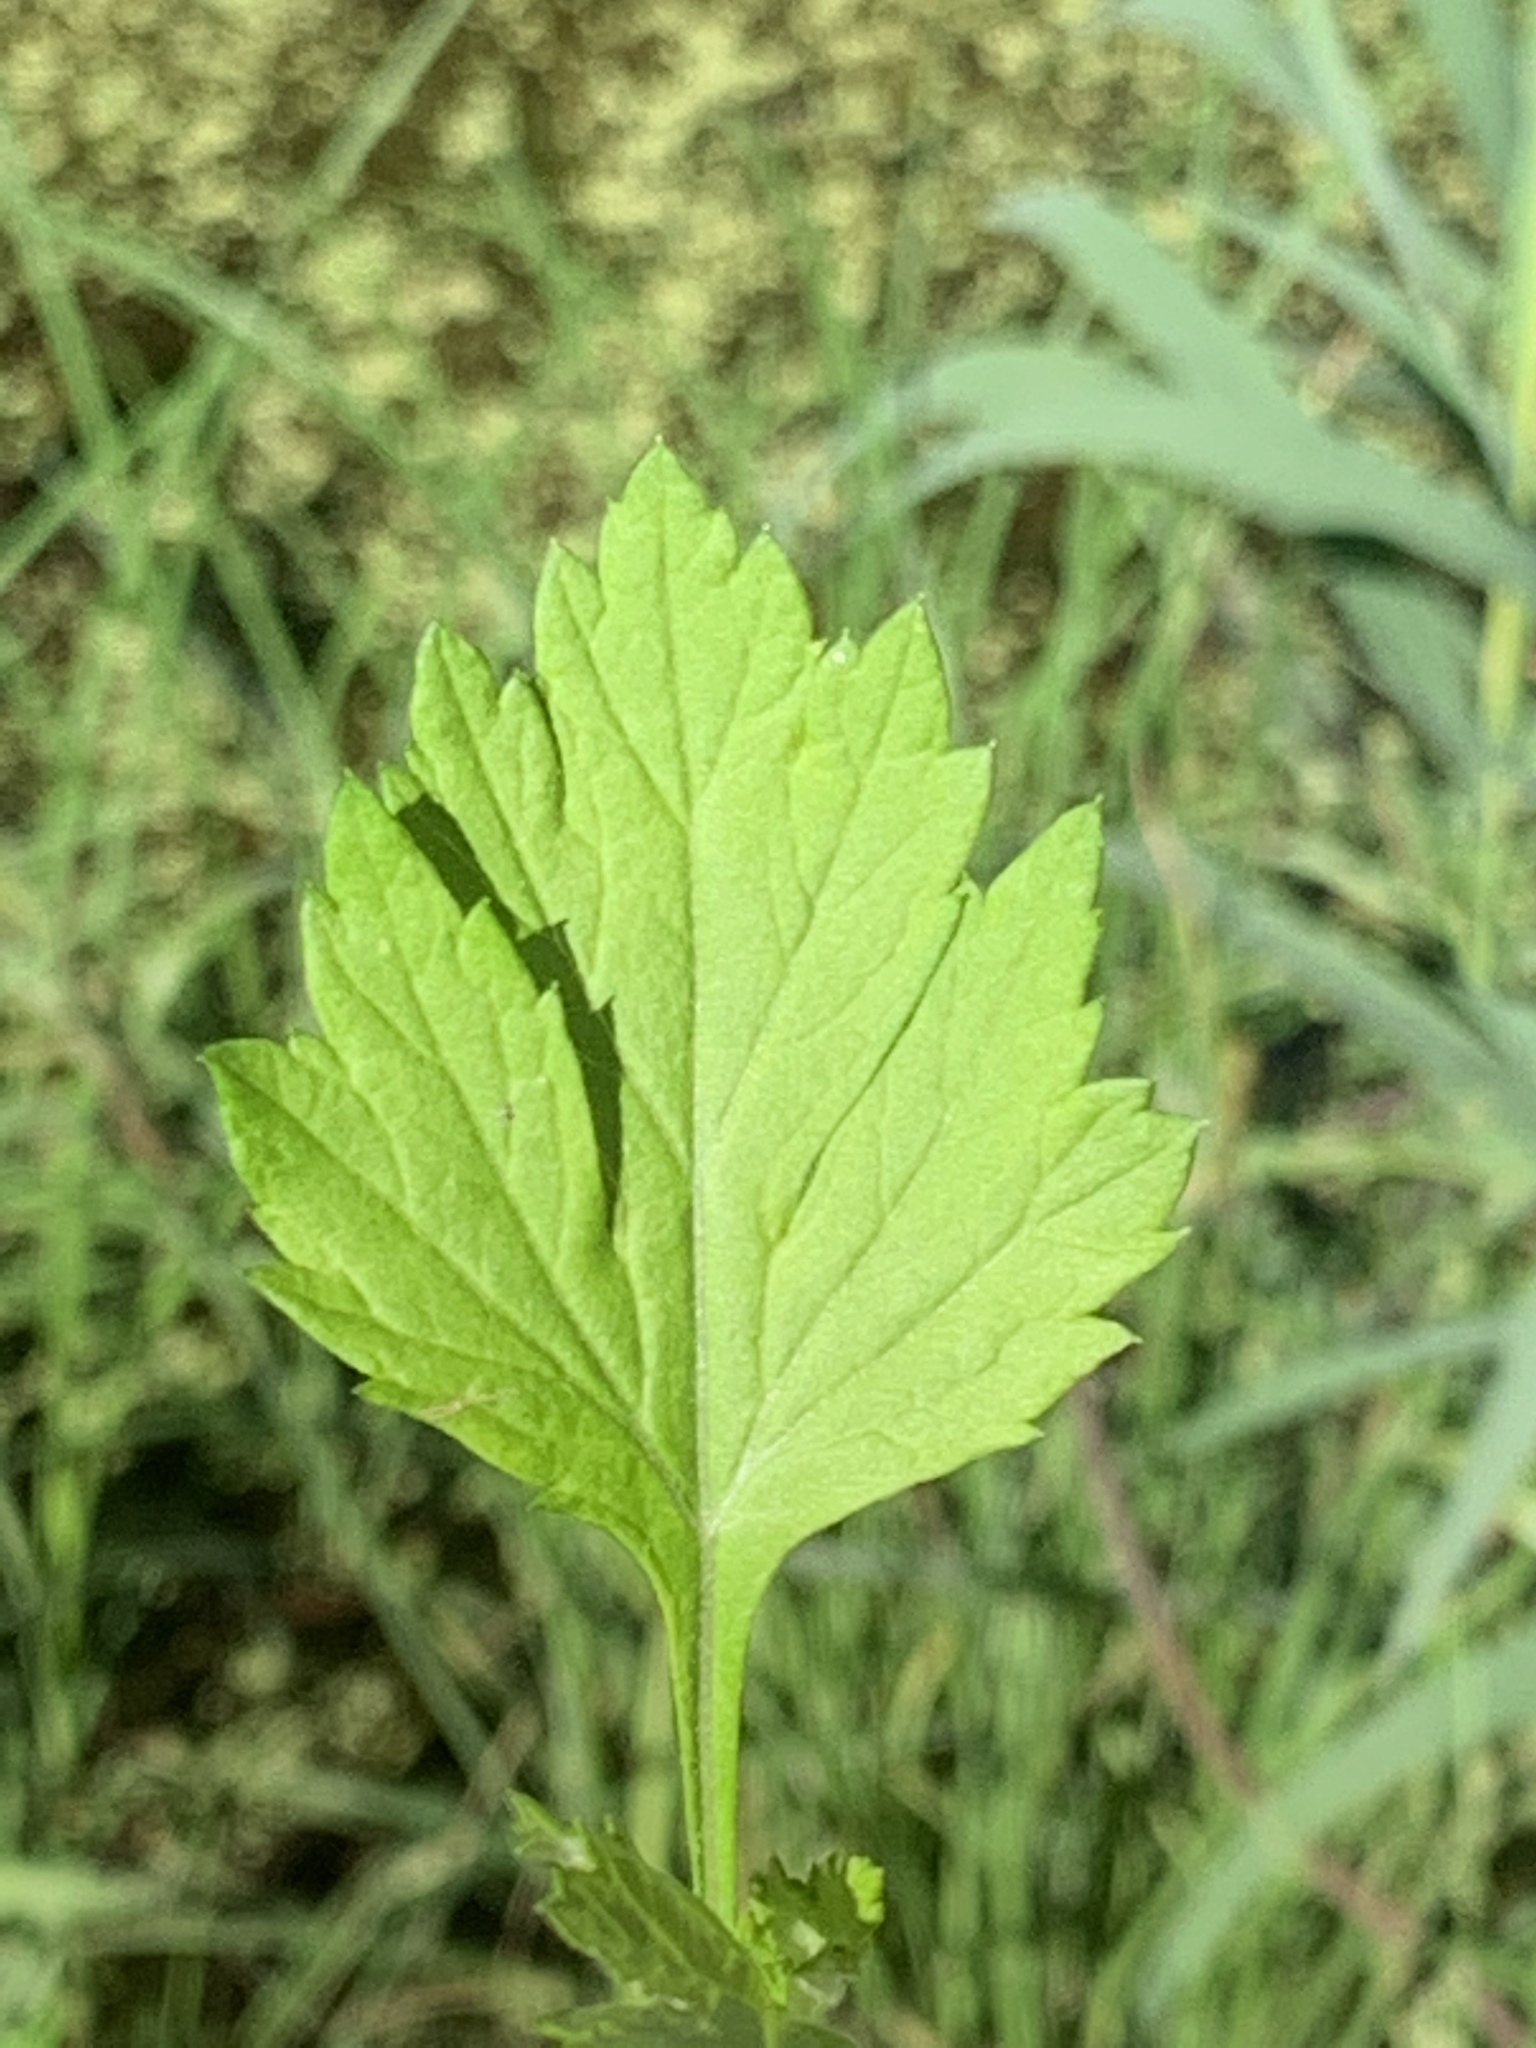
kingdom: Plantae
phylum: Tracheophyta
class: Magnoliopsida
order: Asterales
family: Asteraceae
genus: Artemisia
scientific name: Artemisia vulgaris
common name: Mugwort
